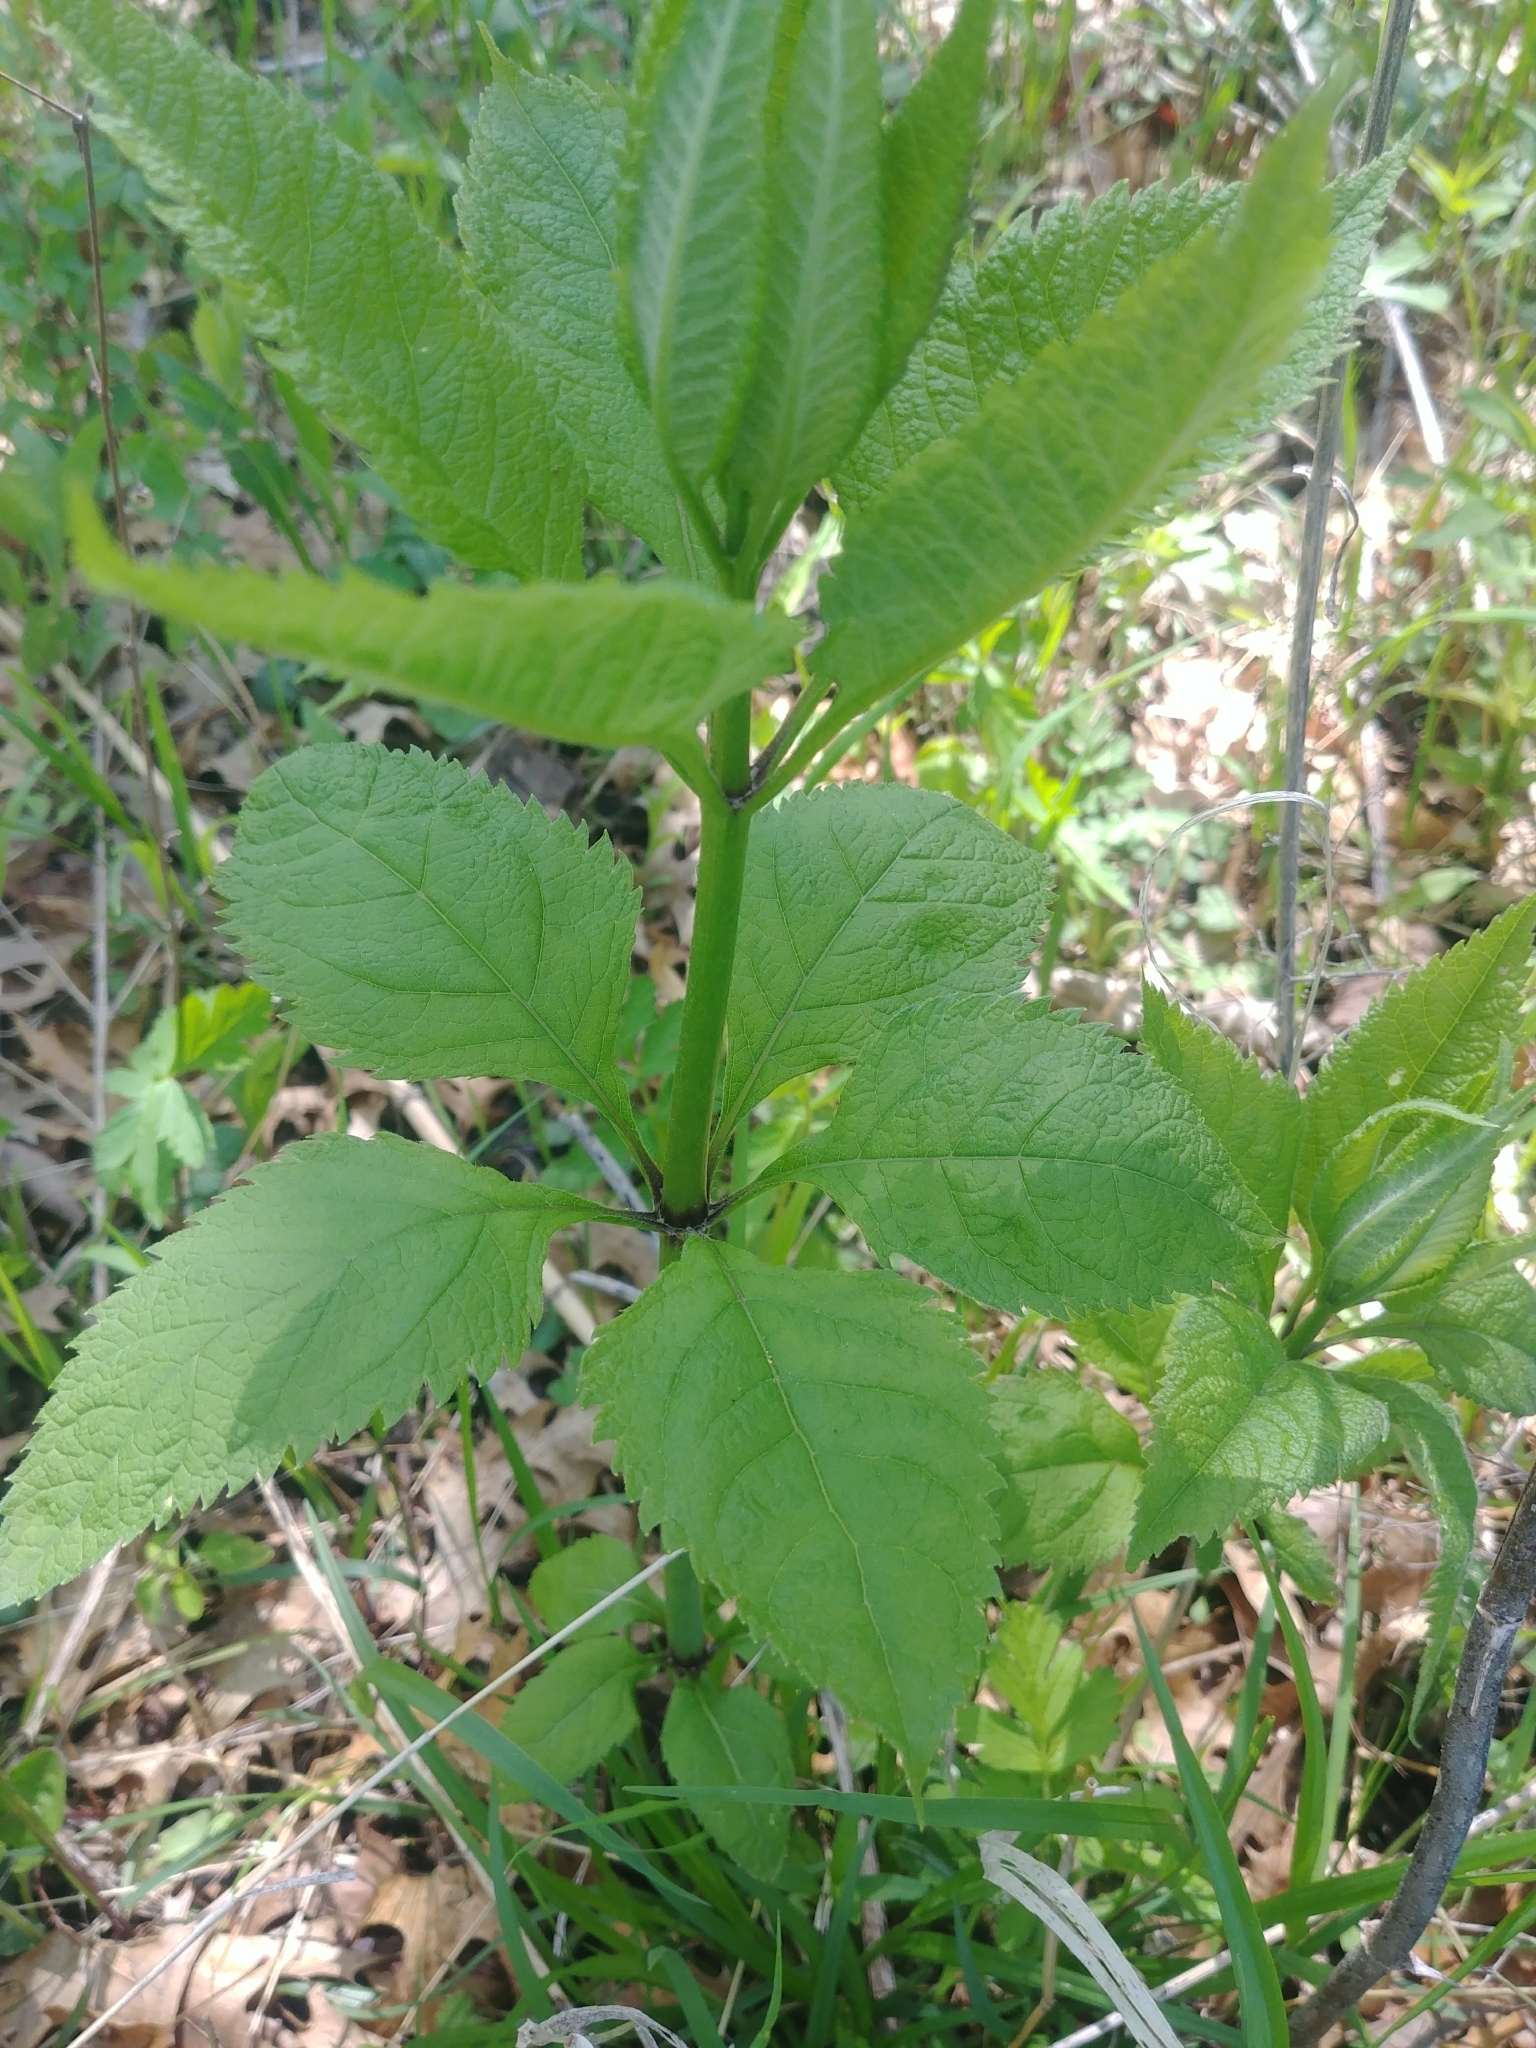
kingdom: Plantae
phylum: Tracheophyta
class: Magnoliopsida
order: Asterales
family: Asteraceae
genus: Eutrochium
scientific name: Eutrochium purpureum
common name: Gravelroot
